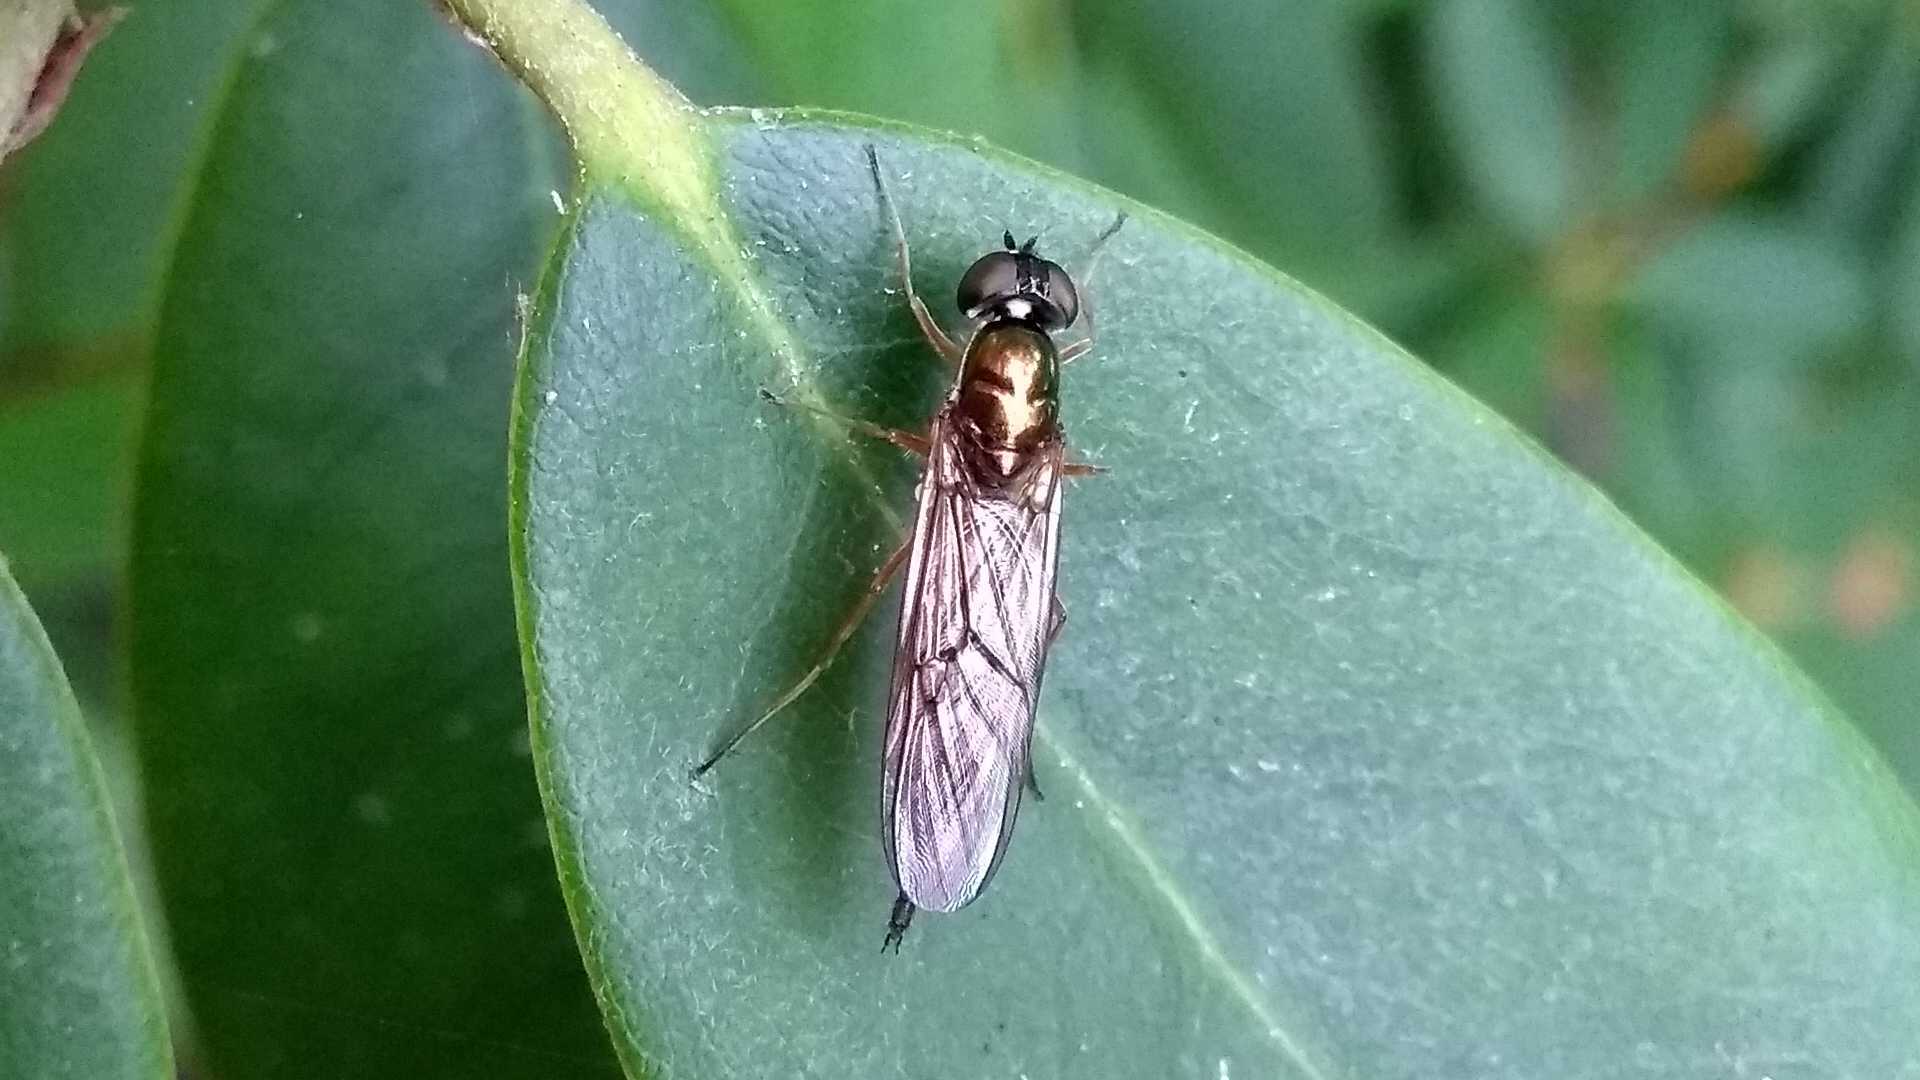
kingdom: Animalia
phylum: Arthropoda
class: Insecta
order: Diptera
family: Stratiomyidae
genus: Sargus
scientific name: Sargus bipunctatus
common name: Twin-spot centurion
